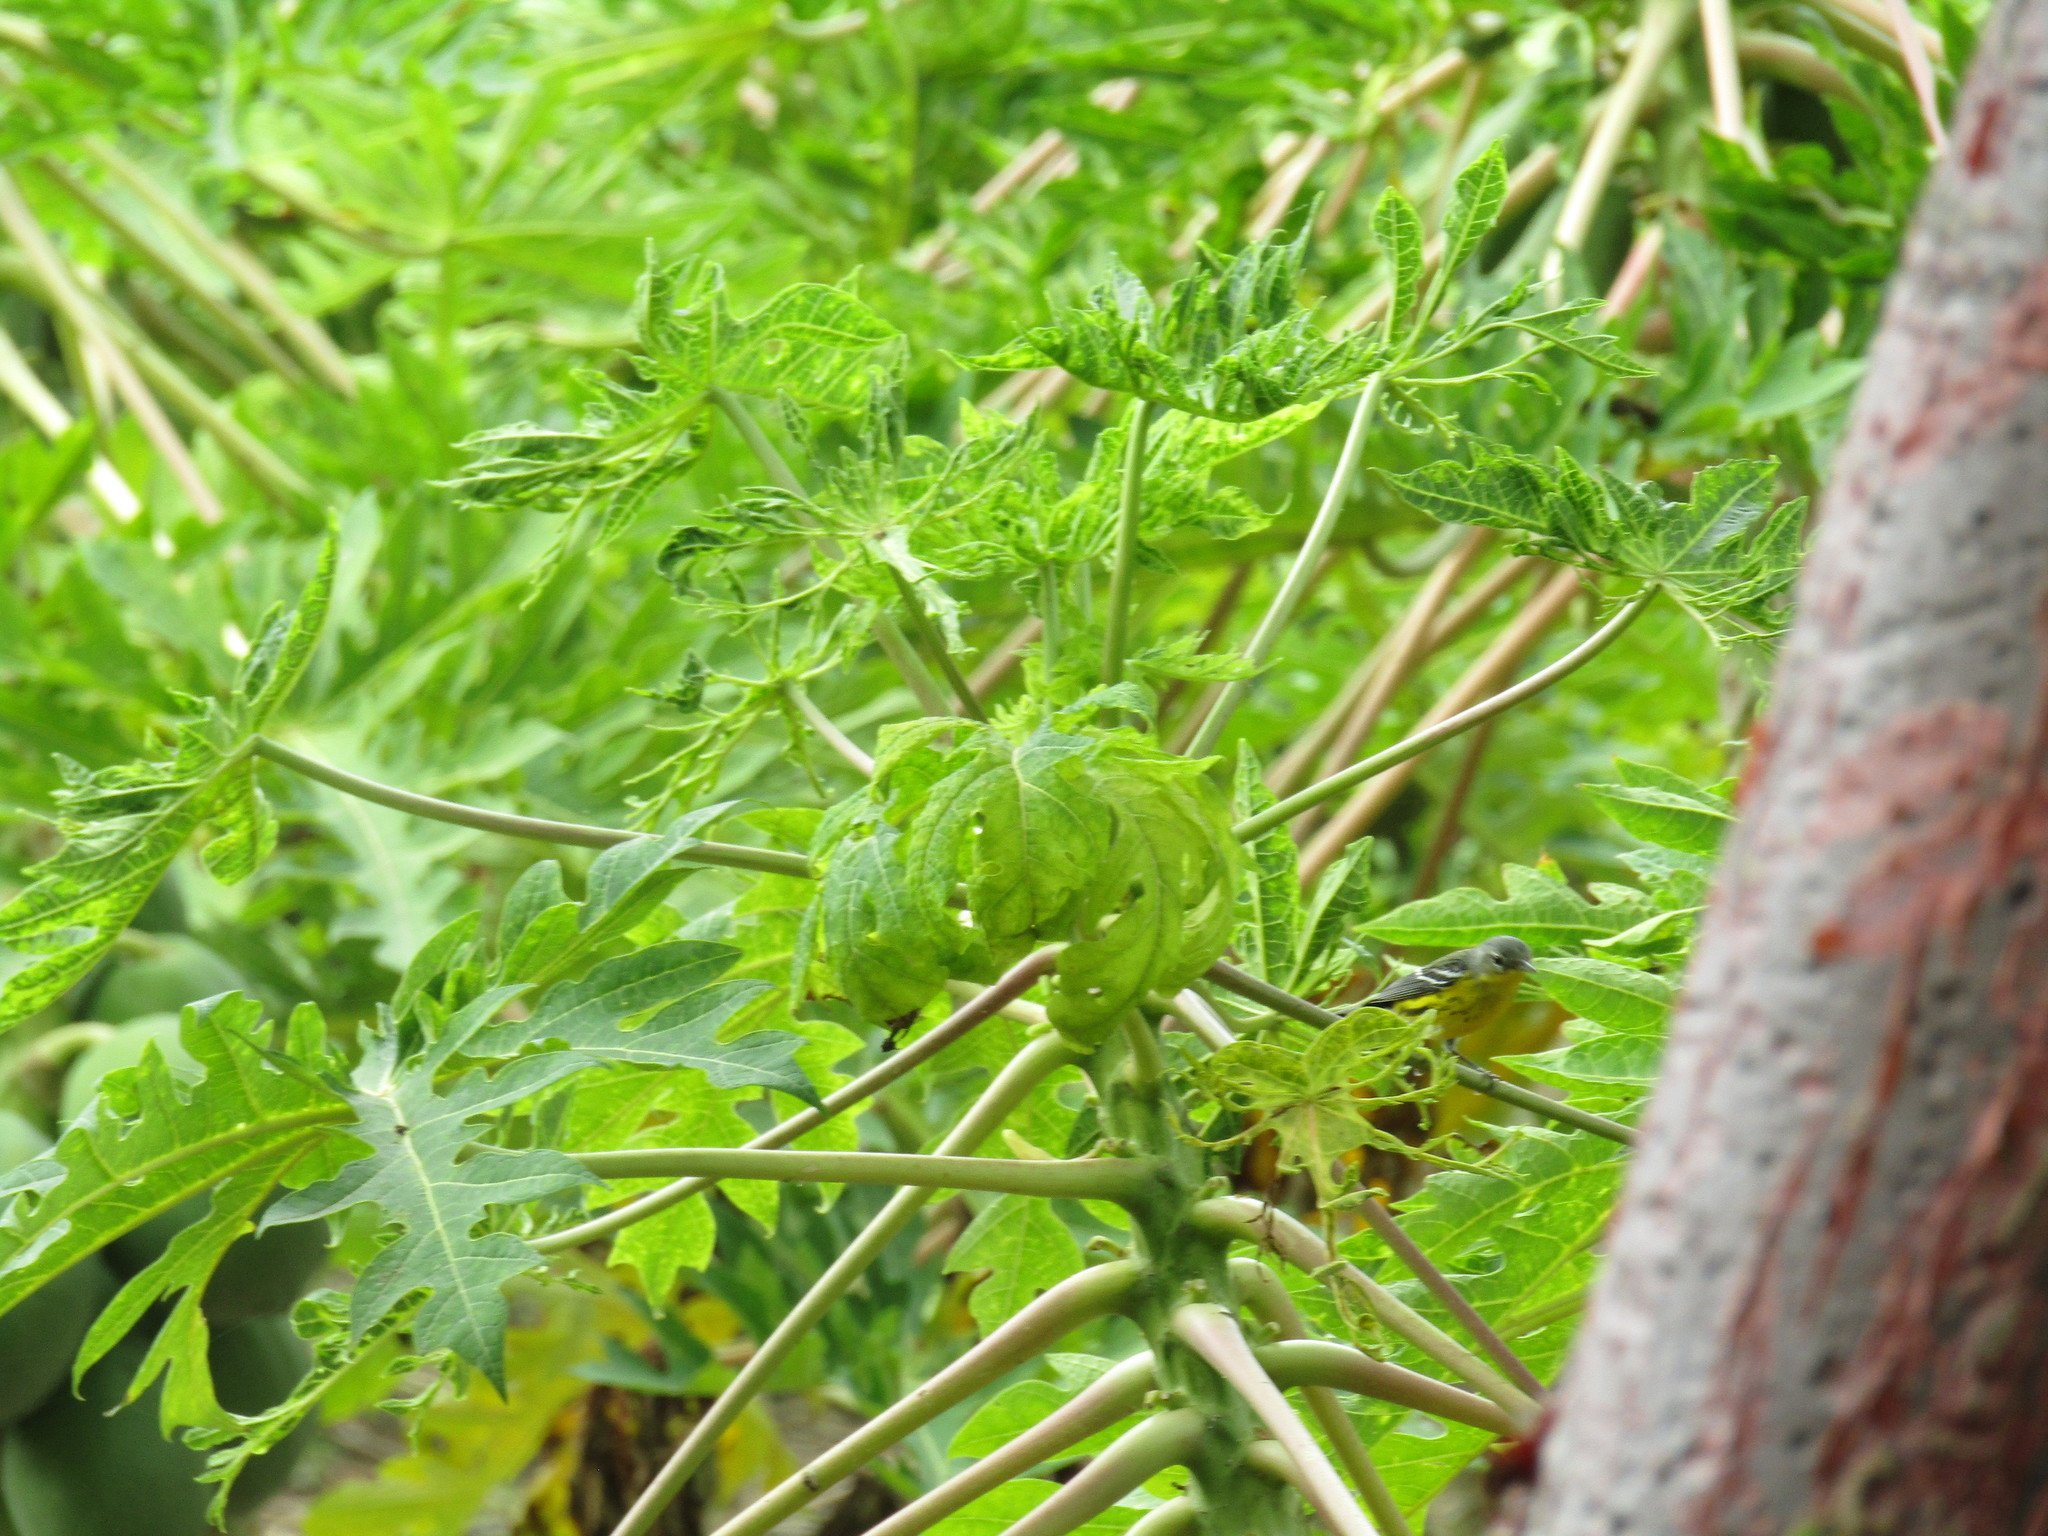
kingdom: Plantae
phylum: Tracheophyta
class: Magnoliopsida
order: Brassicales
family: Caricaceae
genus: Carica
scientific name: Carica papaya
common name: Papaya
